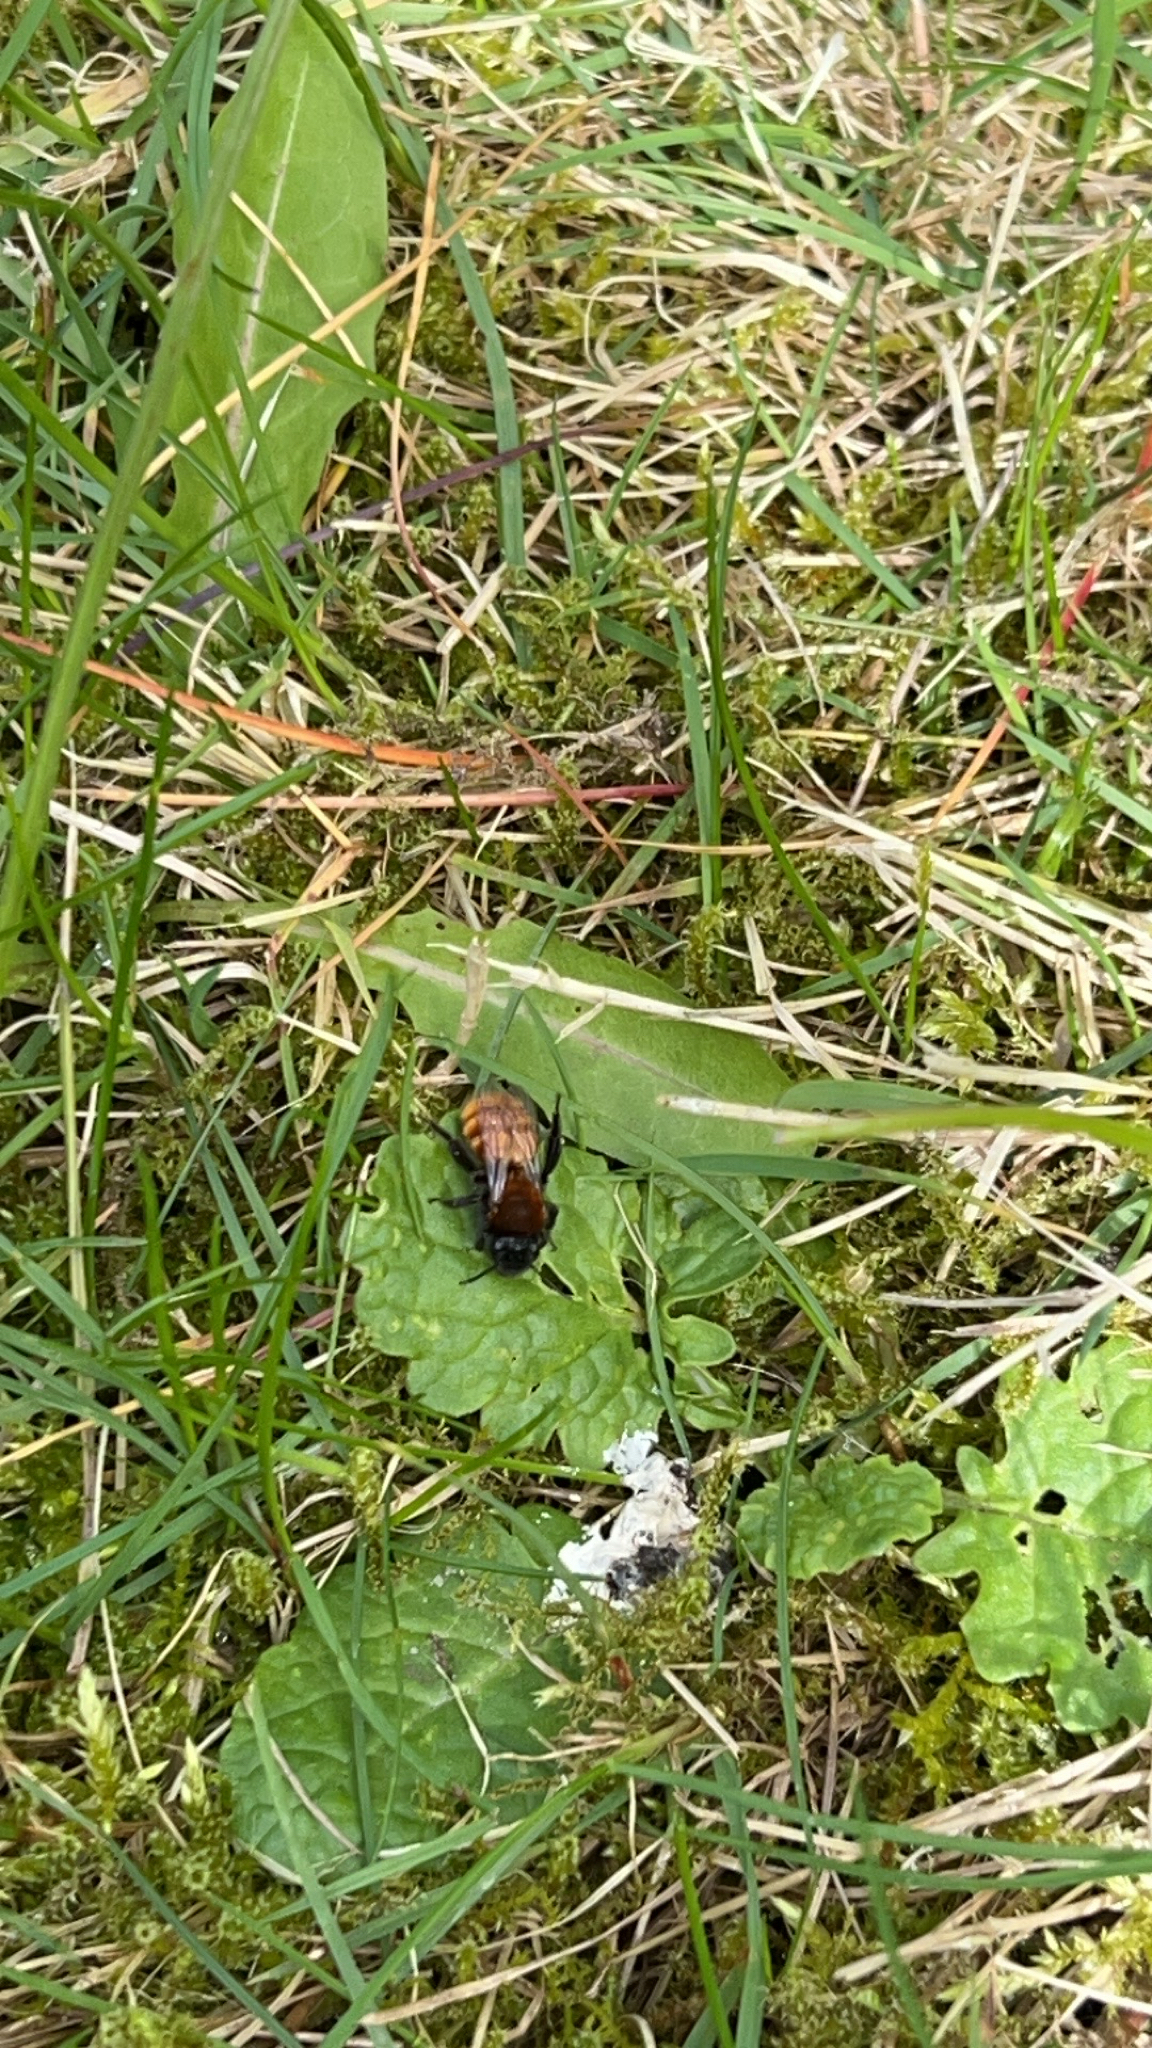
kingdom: Animalia
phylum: Arthropoda
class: Insecta
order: Hymenoptera
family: Andrenidae
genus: Andrena
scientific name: Andrena fulva
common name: Tawny mining bee
